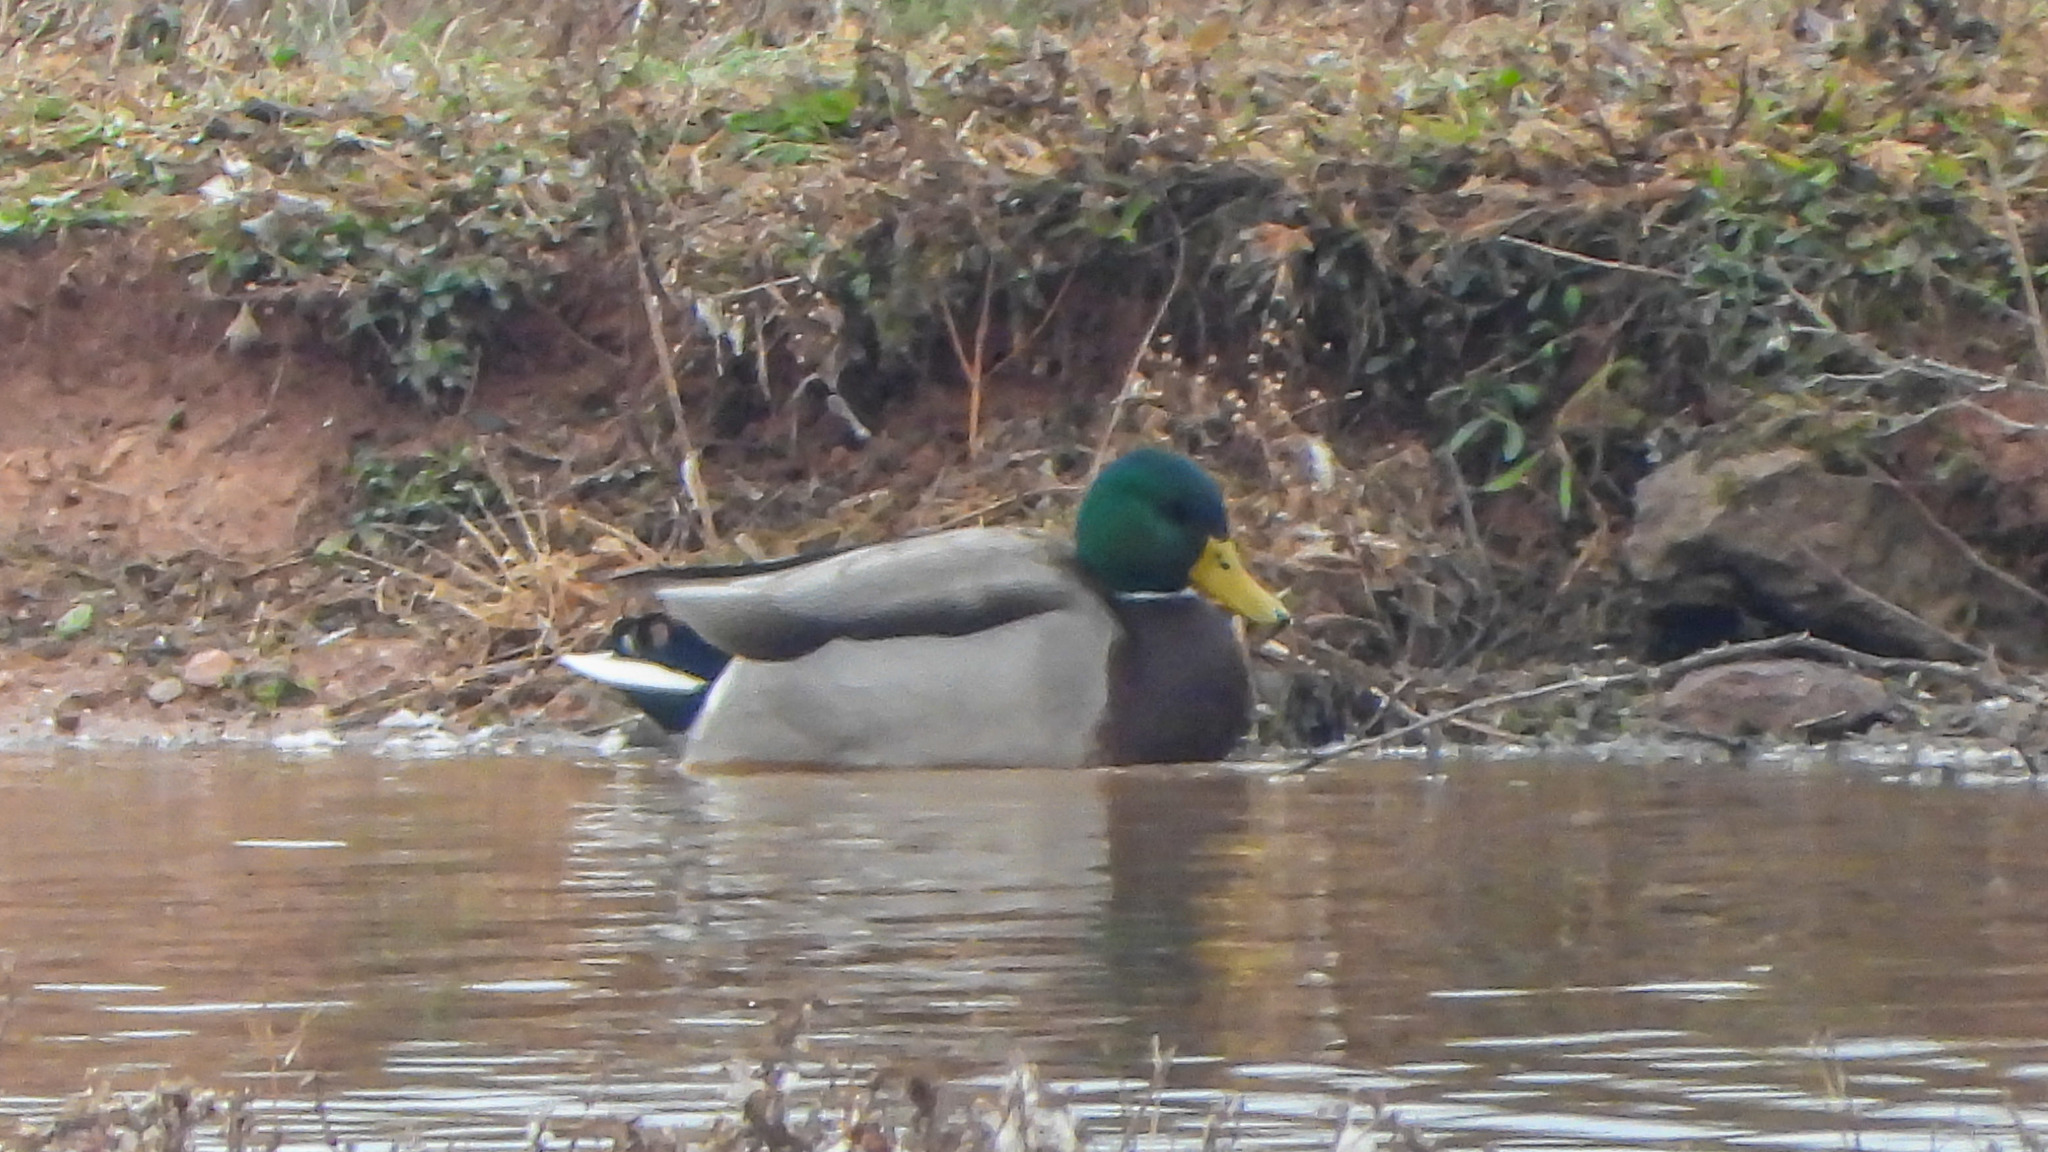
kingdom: Animalia
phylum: Chordata
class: Aves
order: Anseriformes
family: Anatidae
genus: Anas
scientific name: Anas platyrhynchos
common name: Mallard
